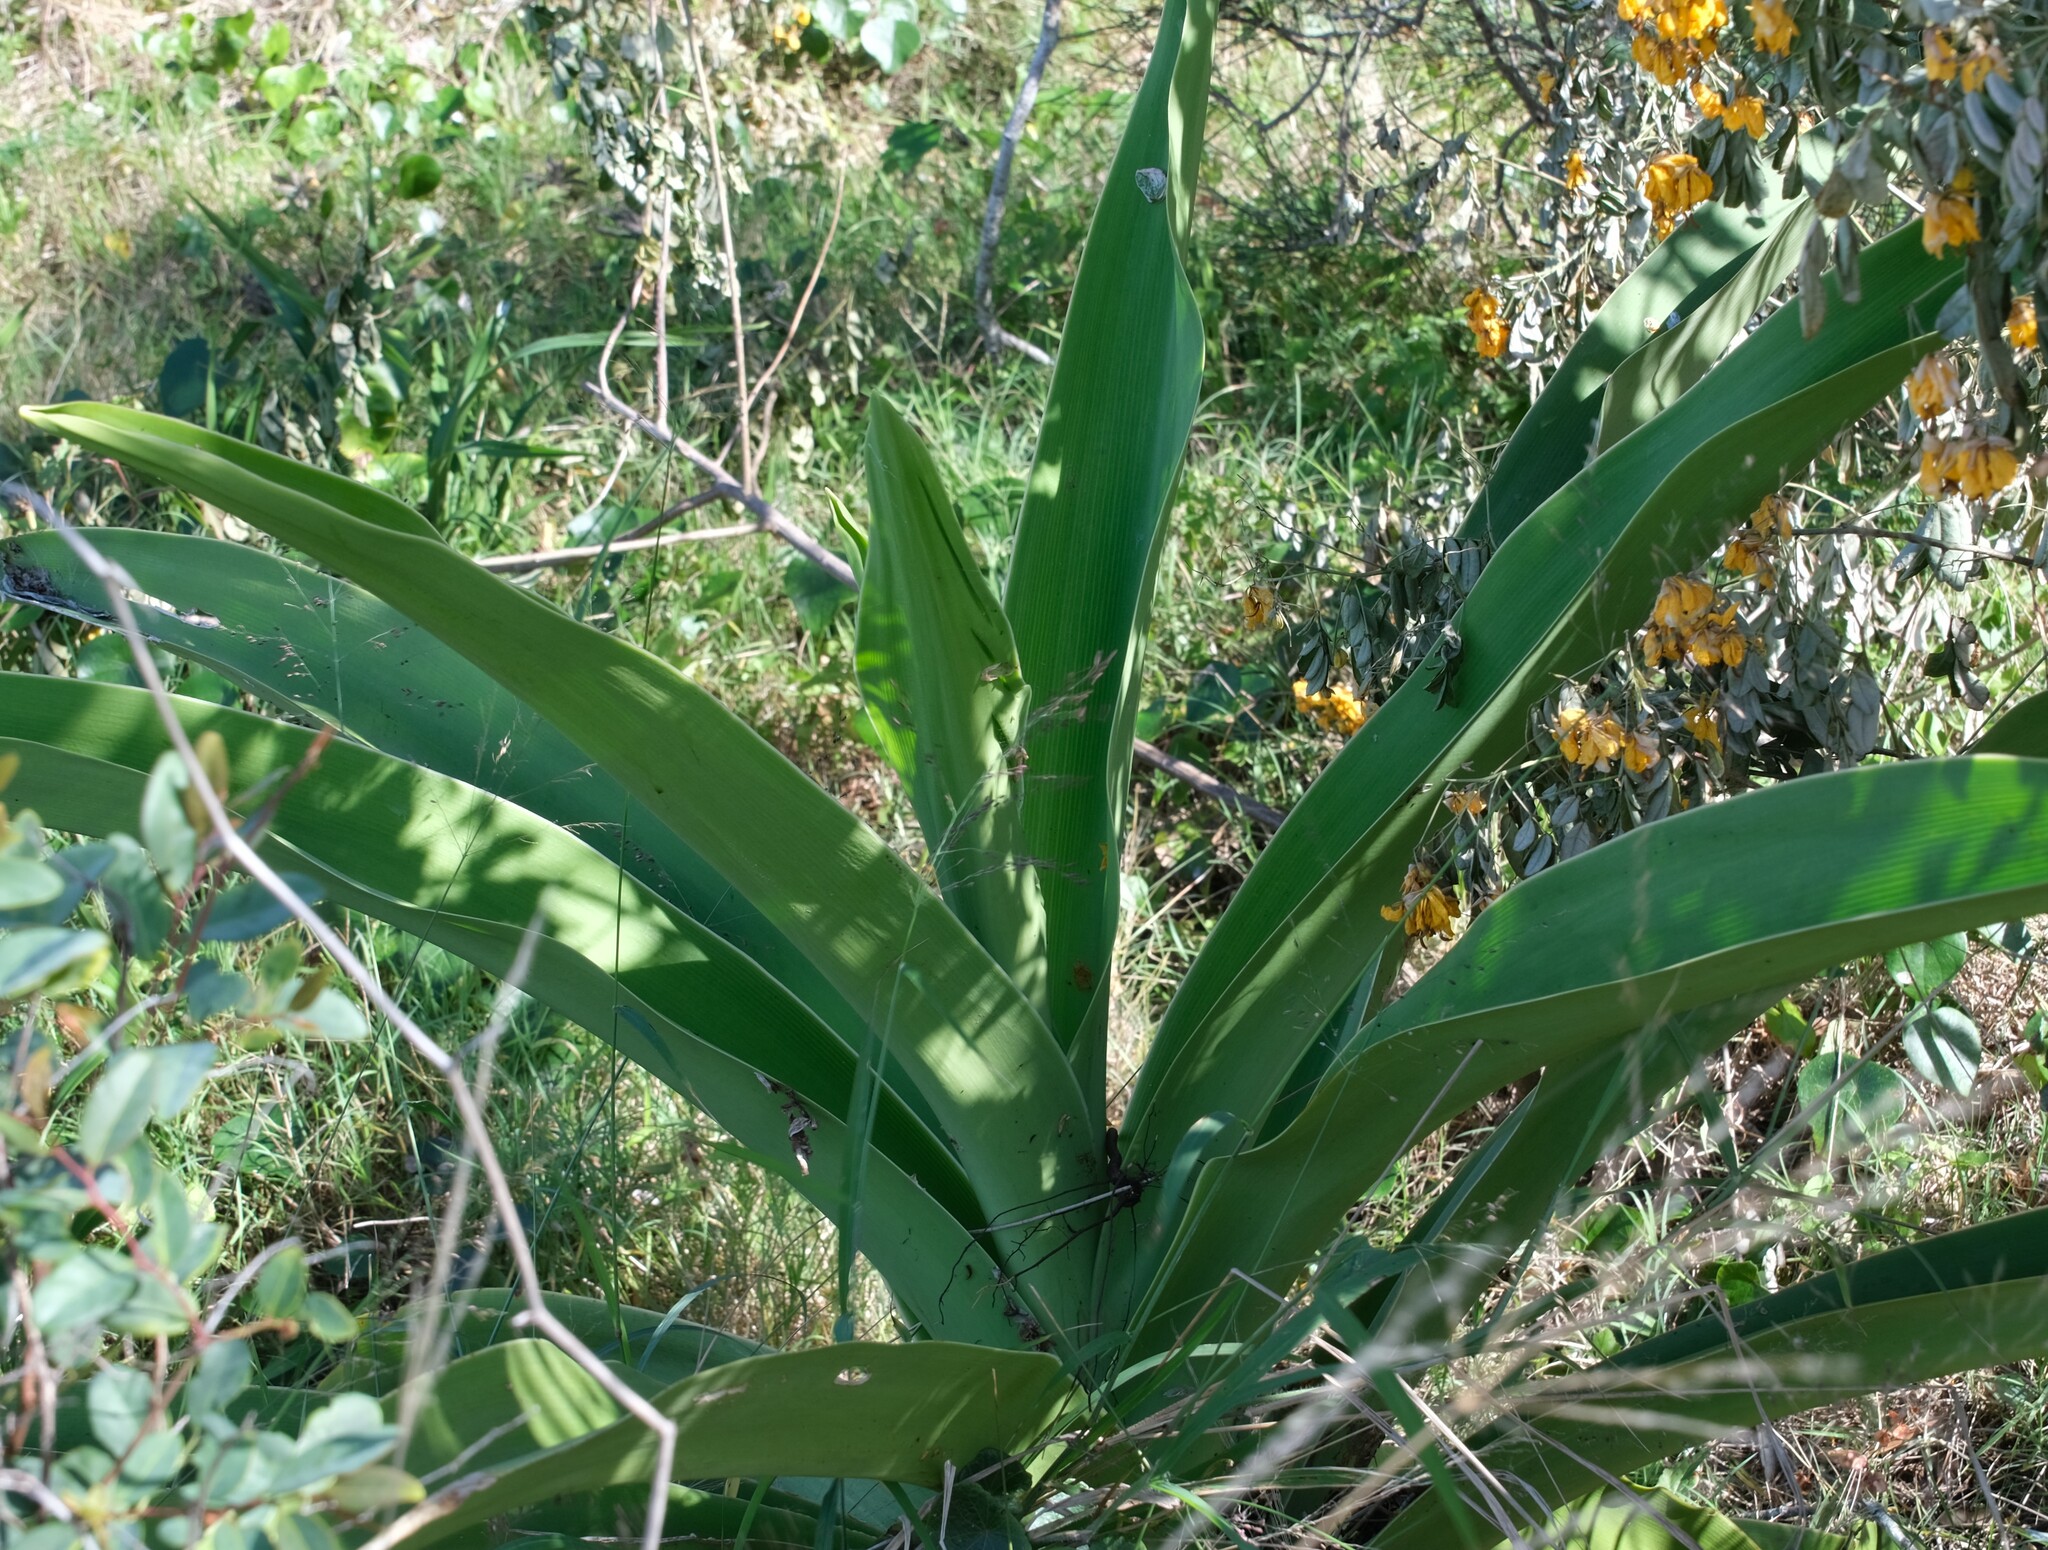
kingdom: Plantae
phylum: Tracheophyta
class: Liliopsida
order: Asparagales
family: Amaryllidaceae
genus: Crinum
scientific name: Crinum pedunculatum
